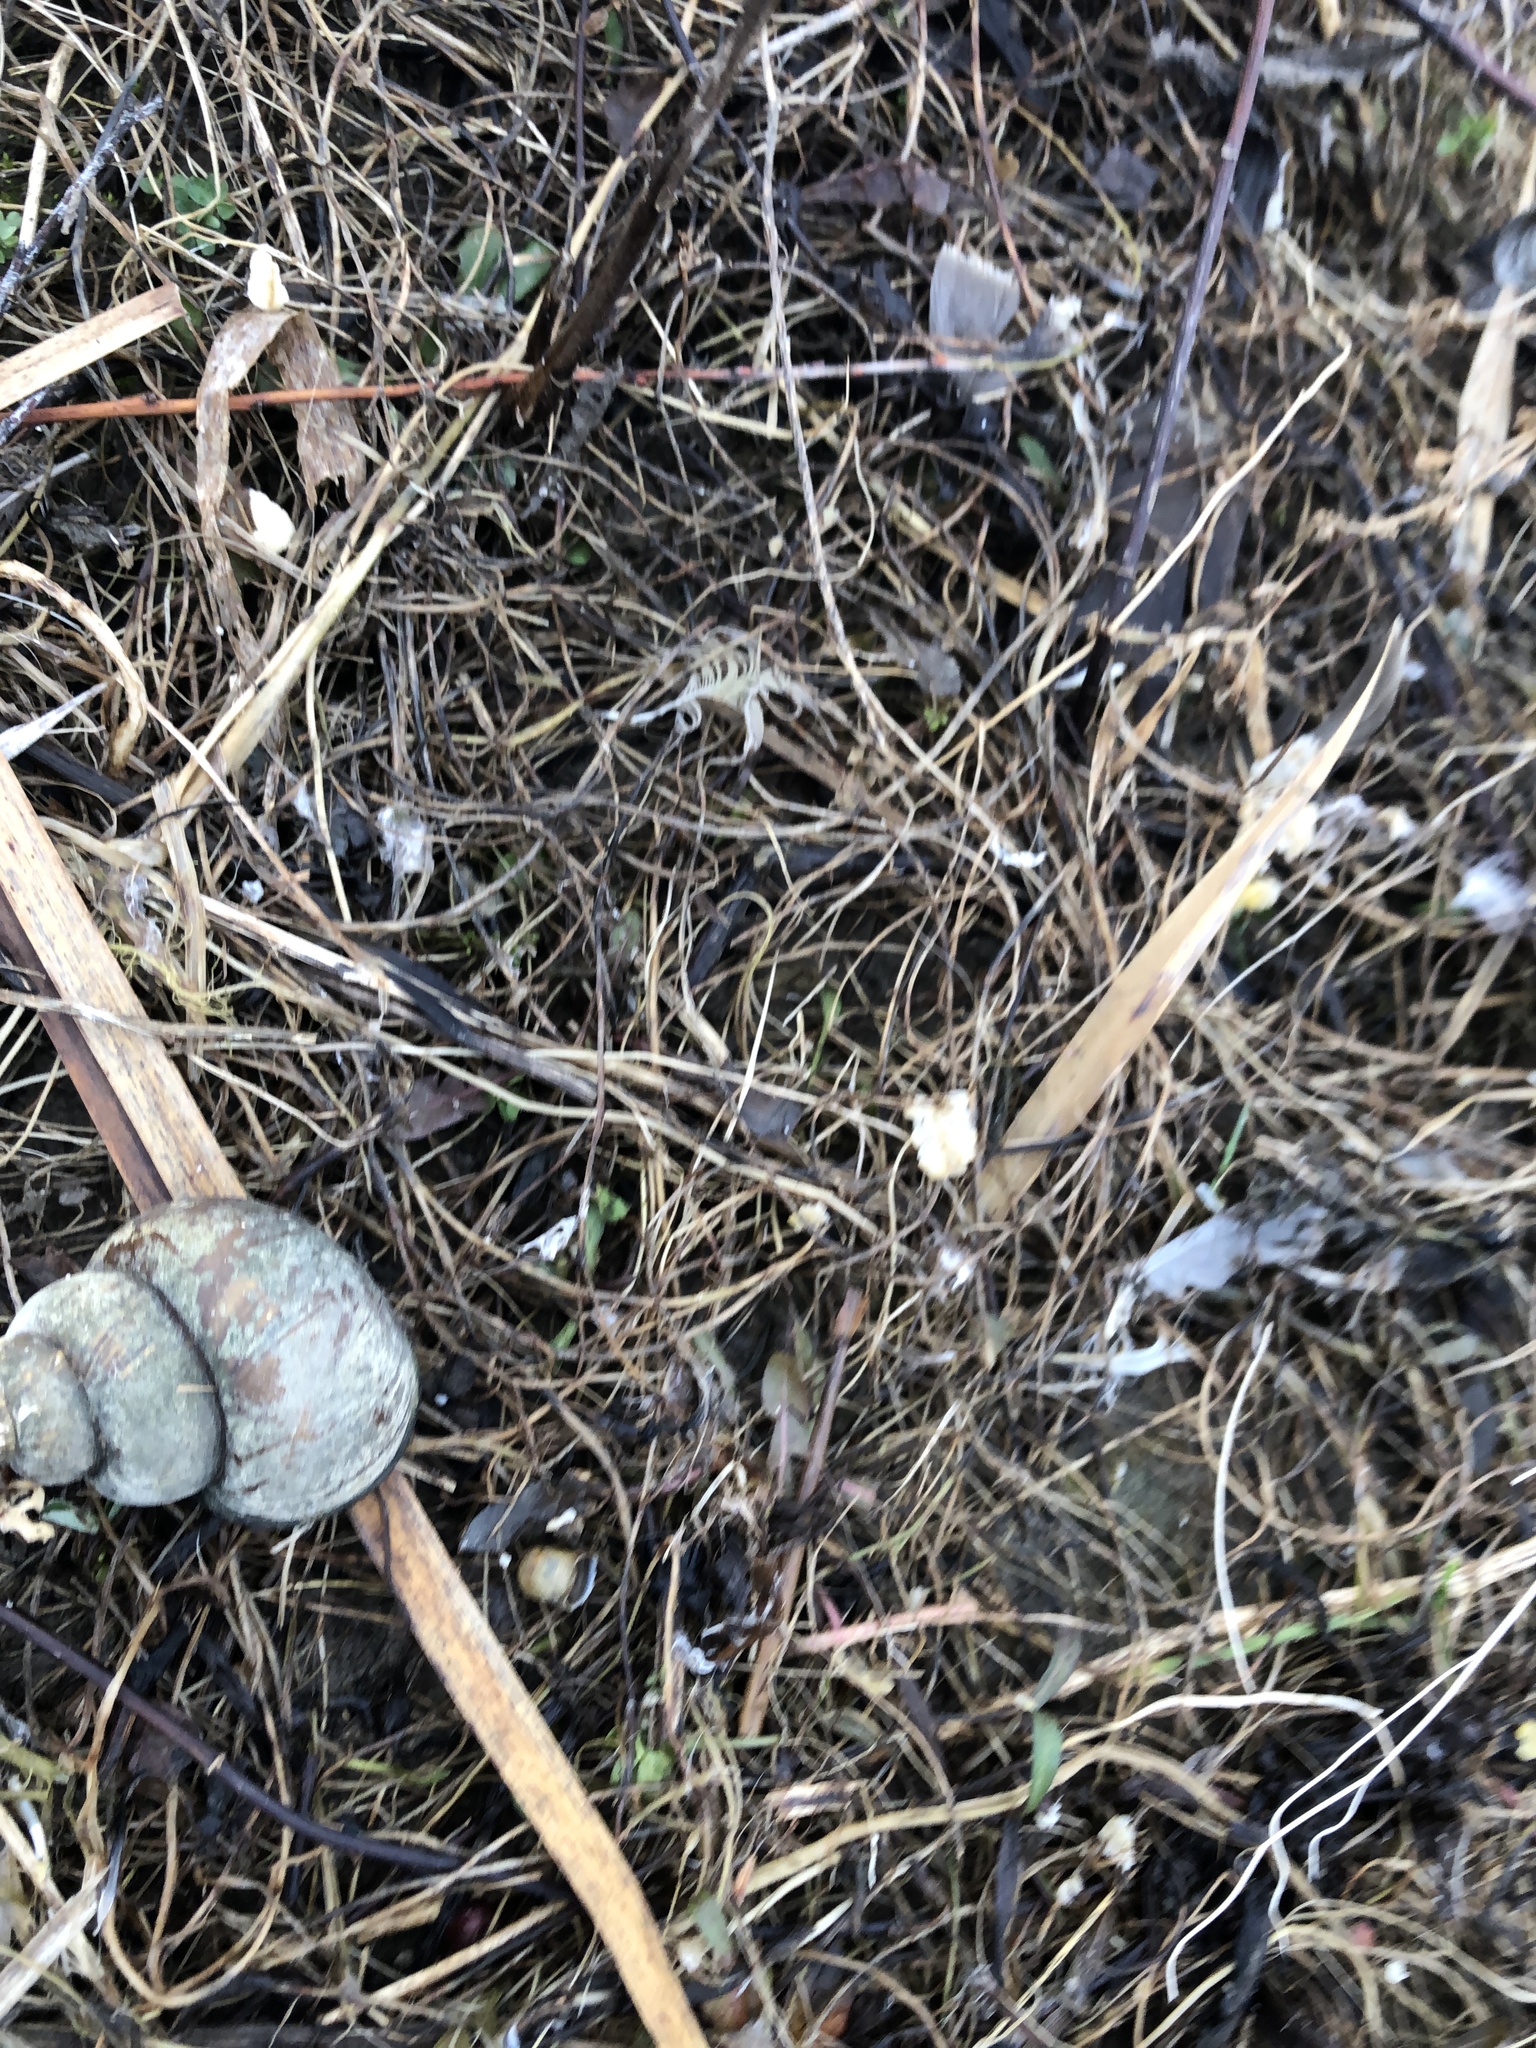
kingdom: Animalia
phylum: Mollusca
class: Gastropoda
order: Architaenioglossa
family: Viviparidae
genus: Cipangopaludina
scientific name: Cipangopaludina chinensis
